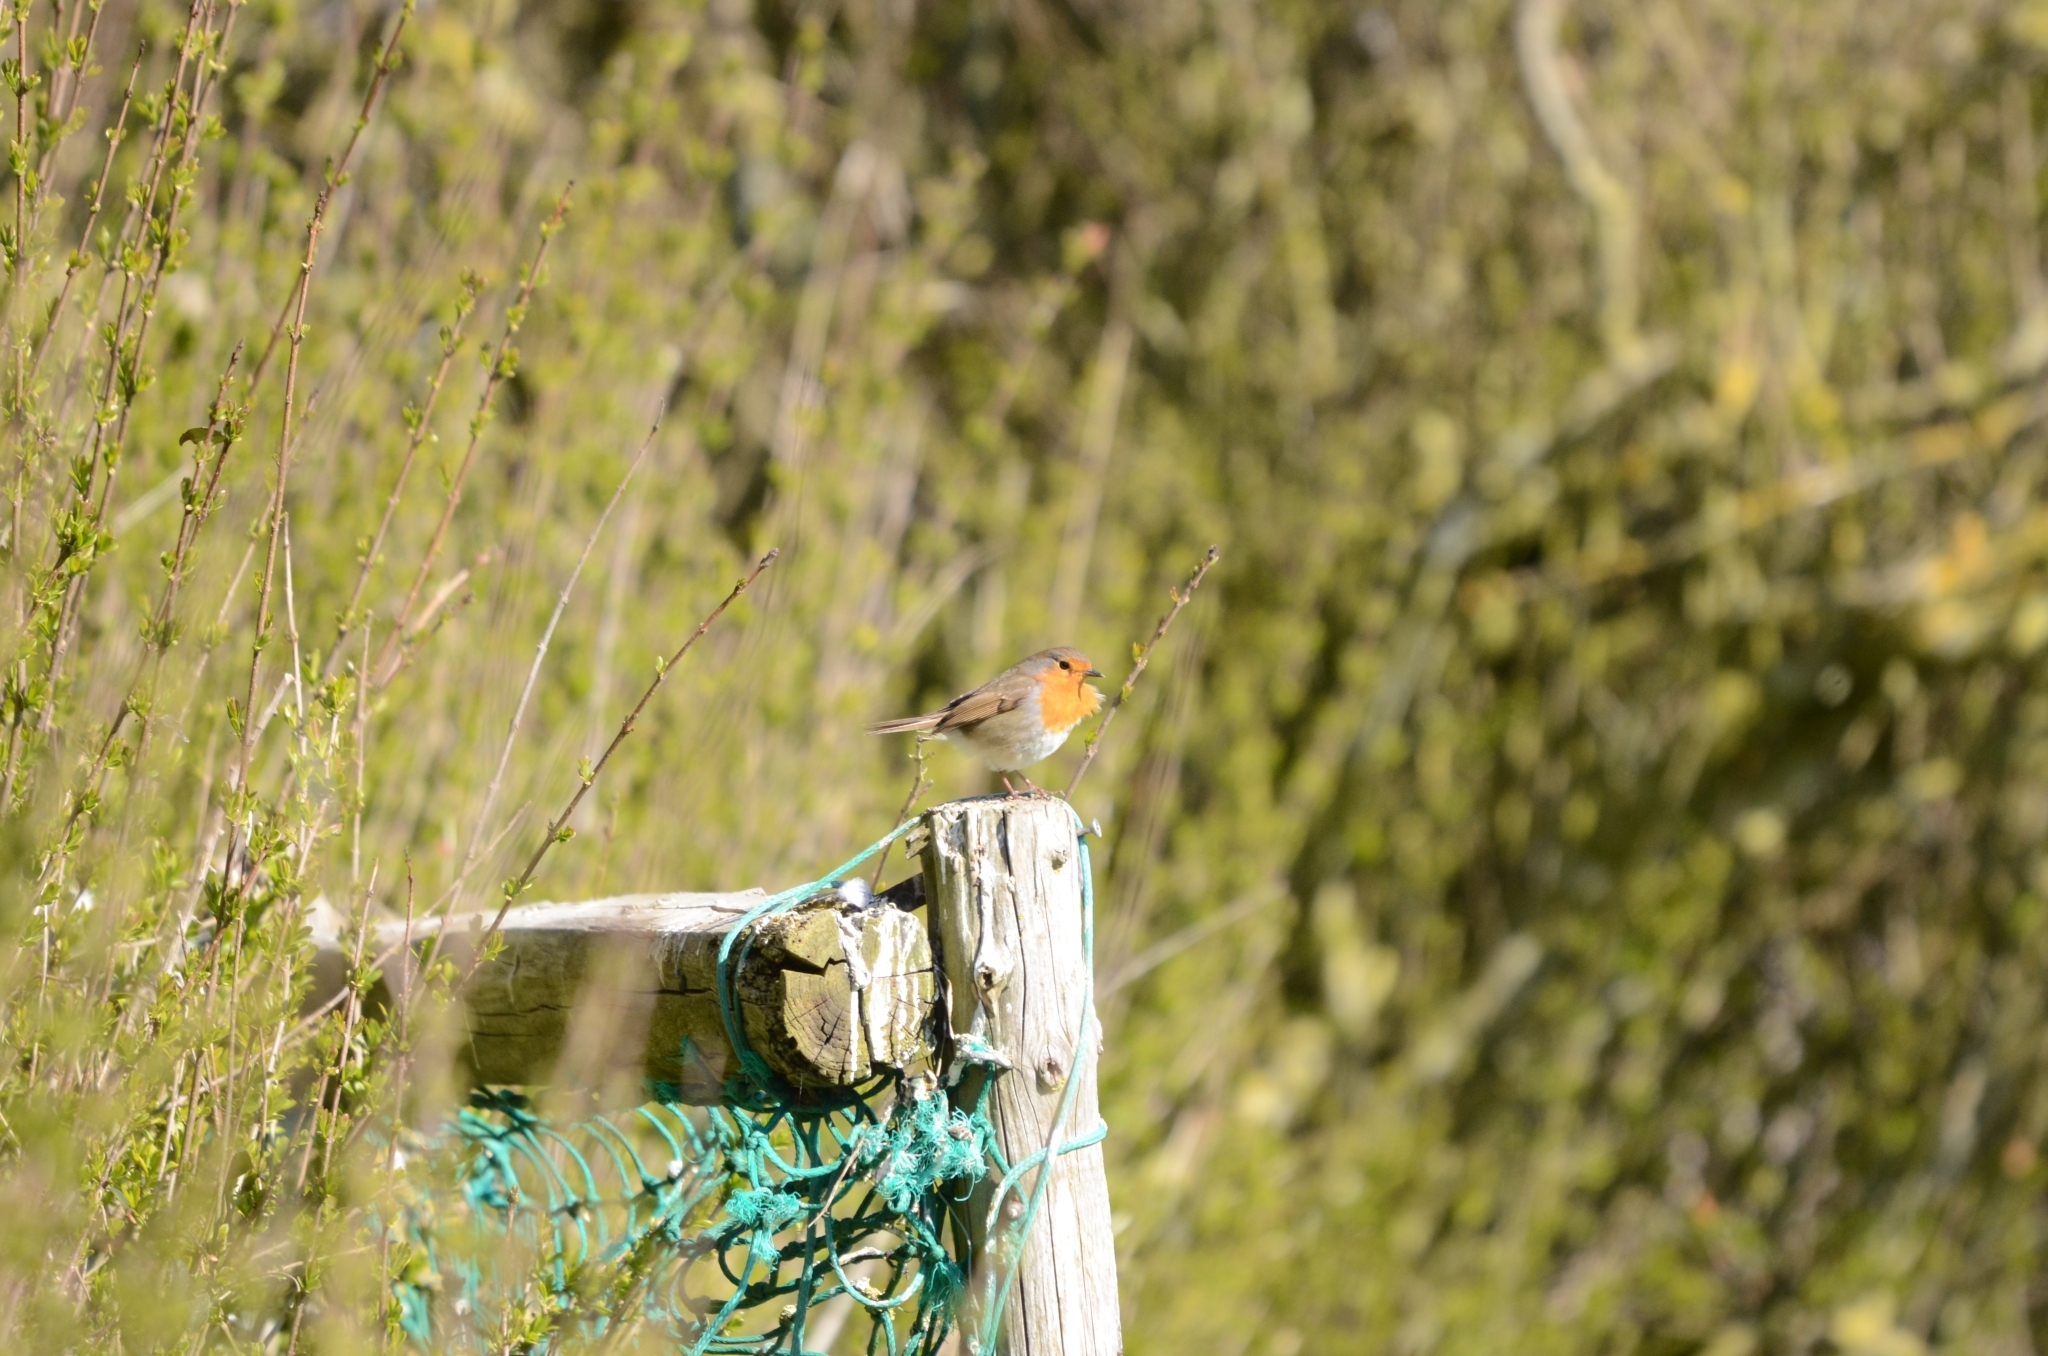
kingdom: Animalia
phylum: Chordata
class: Aves
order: Passeriformes
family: Muscicapidae
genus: Erithacus
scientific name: Erithacus rubecula
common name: European robin
